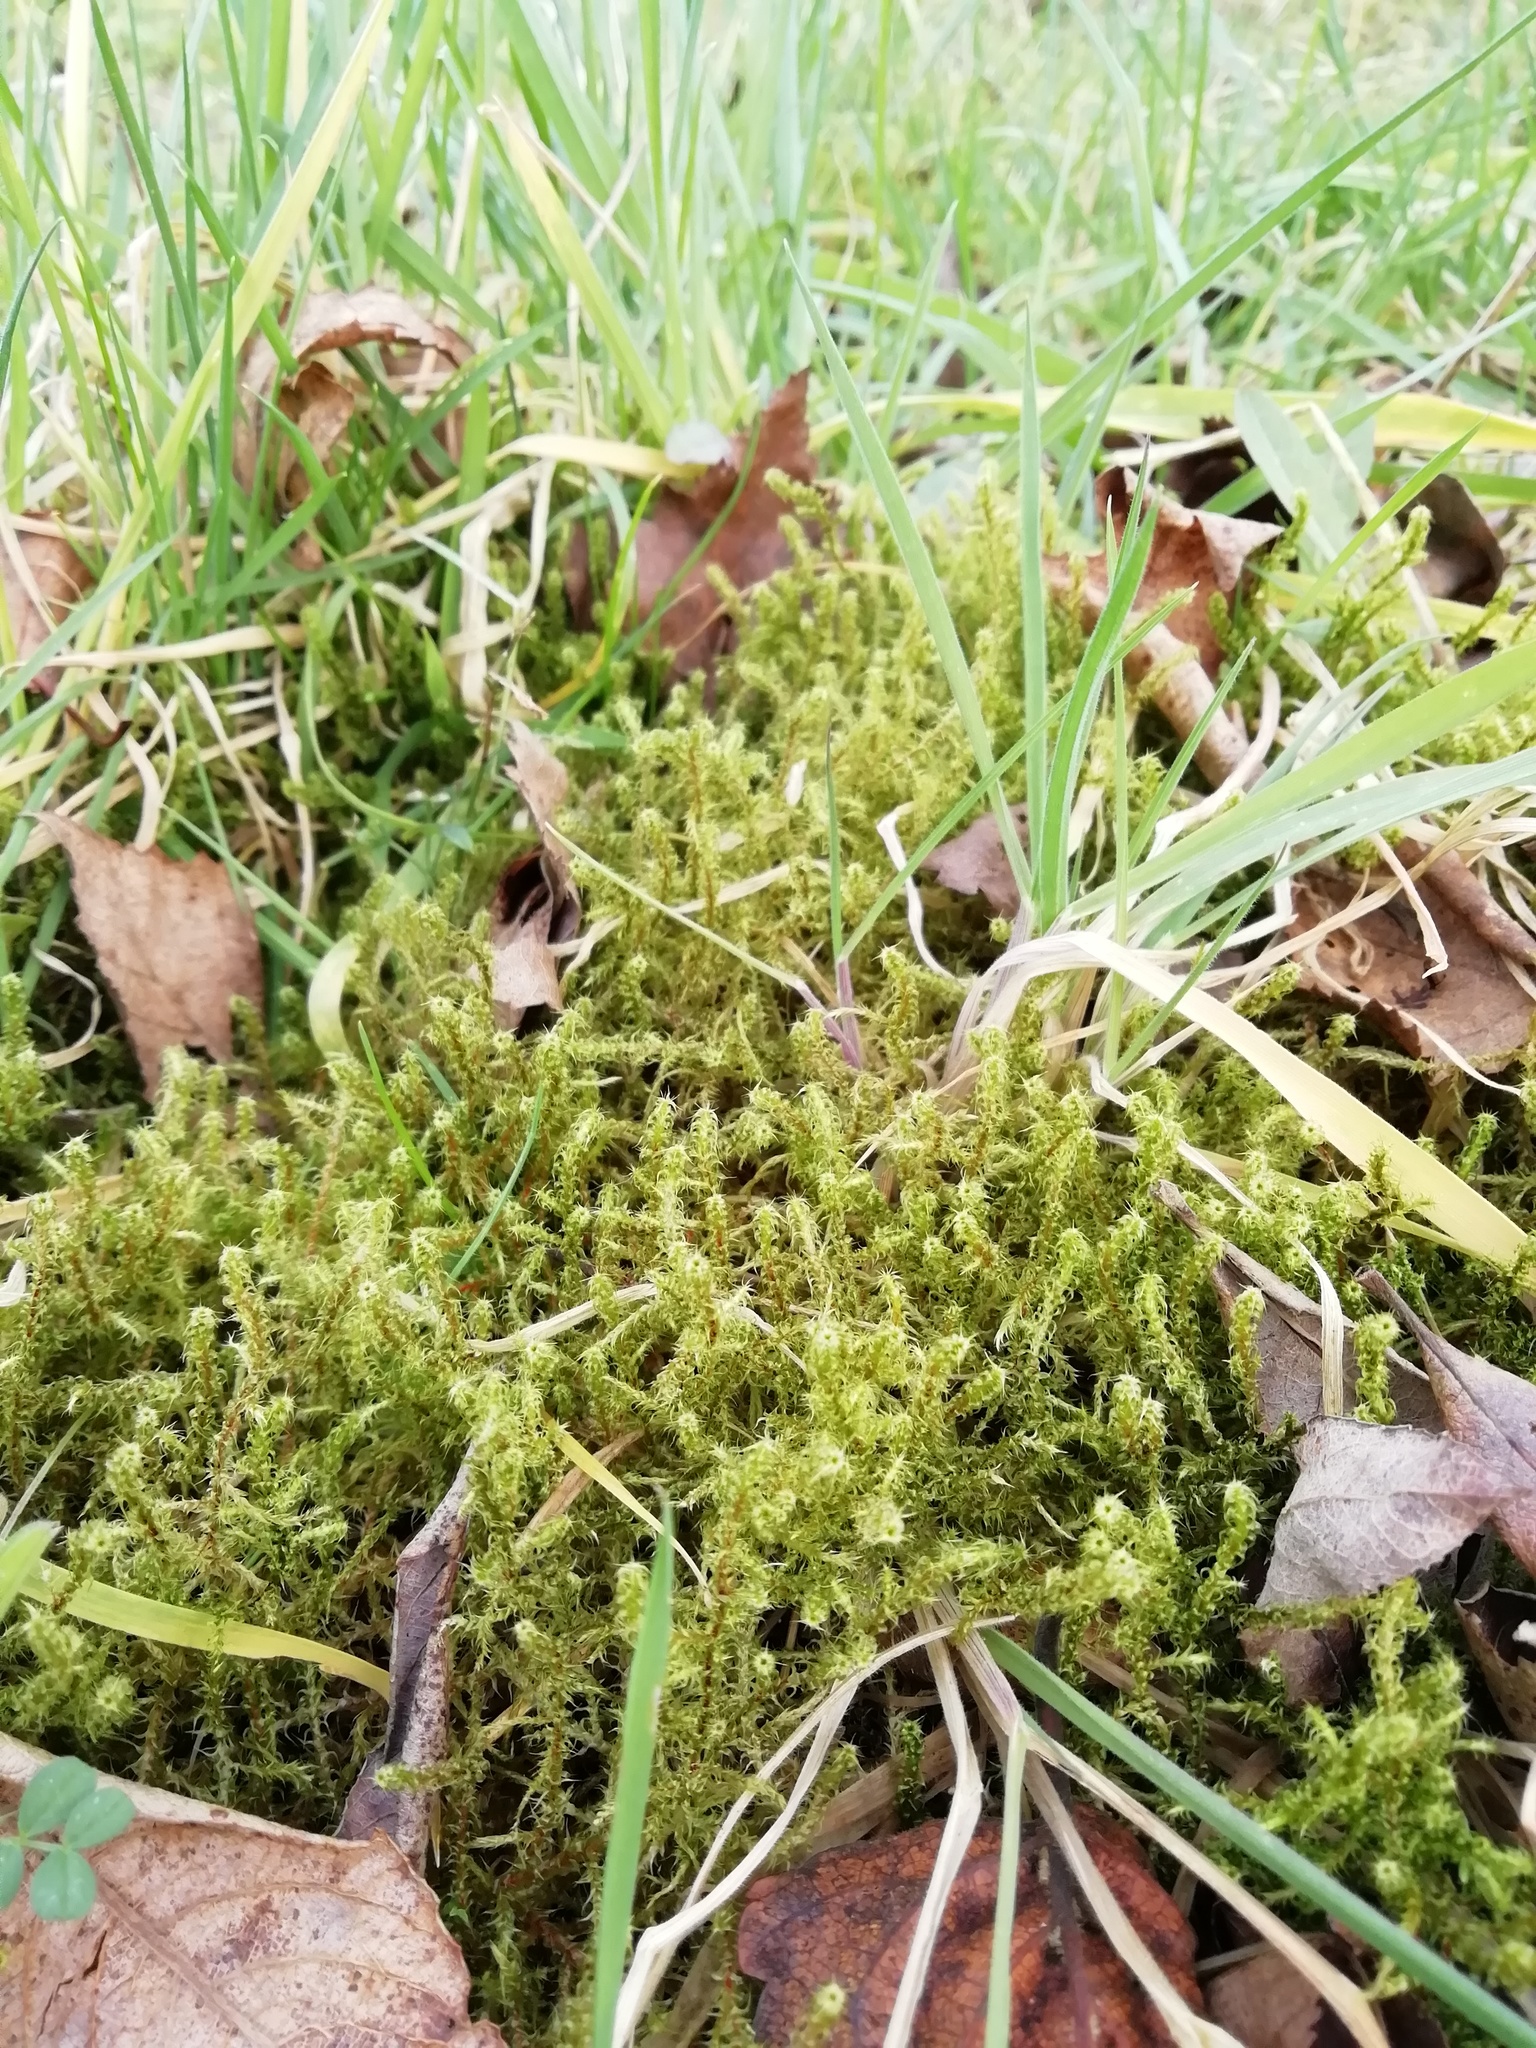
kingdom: Plantae
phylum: Bryophyta
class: Bryopsida
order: Hypnales
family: Hylocomiaceae
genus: Rhytidiadelphus
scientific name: Rhytidiadelphus squarrosus
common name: Springy turf-moss
